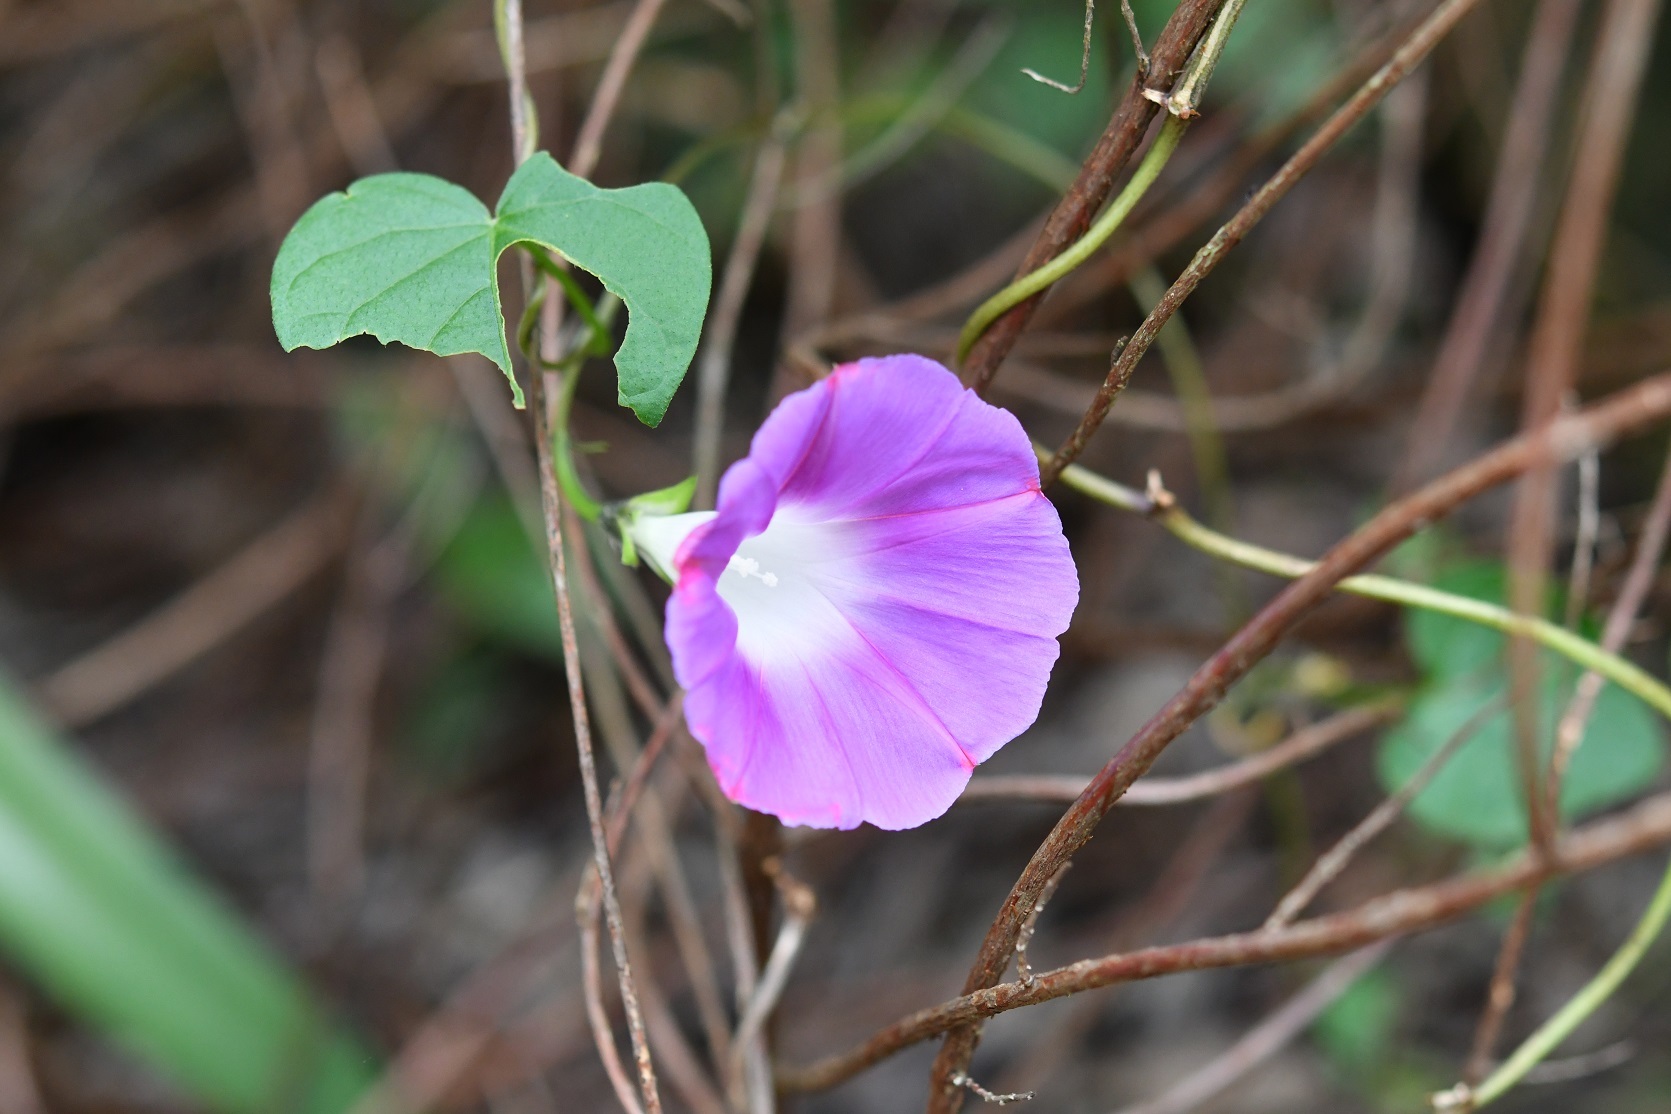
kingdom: Plantae
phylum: Tracheophyta
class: Magnoliopsida
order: Solanales
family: Convolvulaceae
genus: Ipomoea
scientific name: Ipomoea purpurea
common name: Common morning-glory
